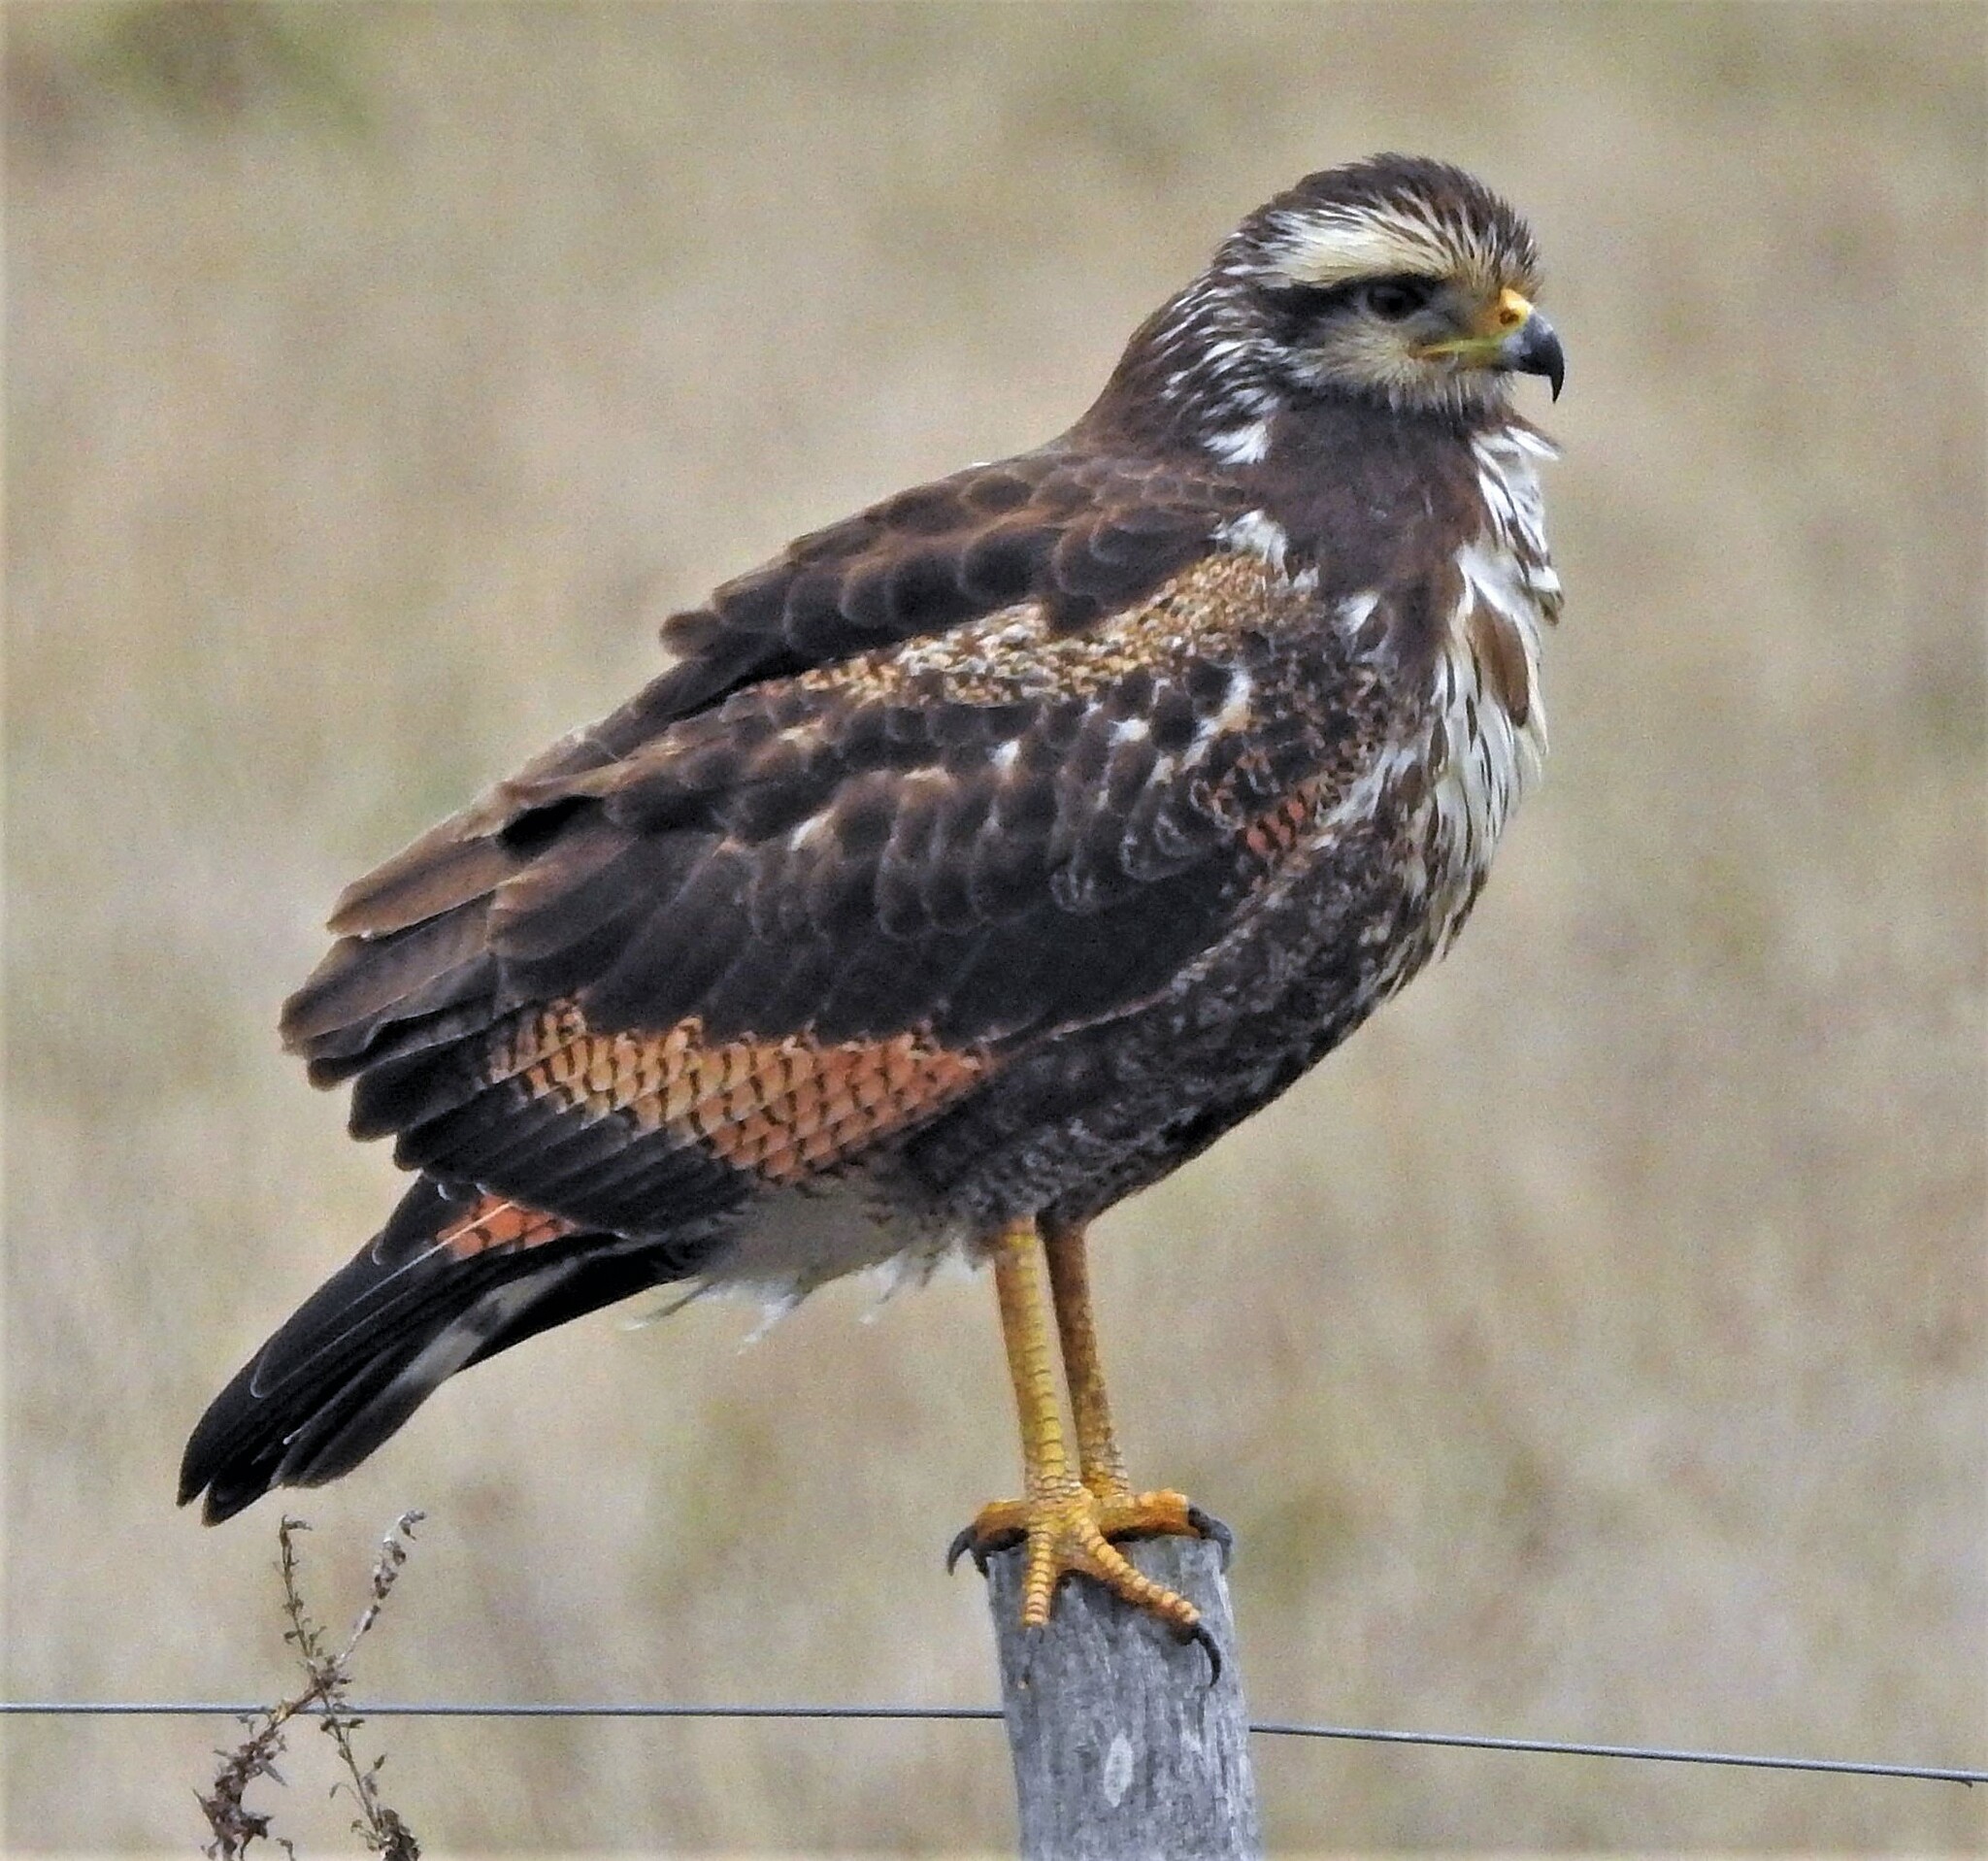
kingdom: Animalia
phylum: Chordata
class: Aves
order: Accipitriformes
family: Accipitridae
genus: Buteogallus
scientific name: Buteogallus meridionalis
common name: Savanna hawk
